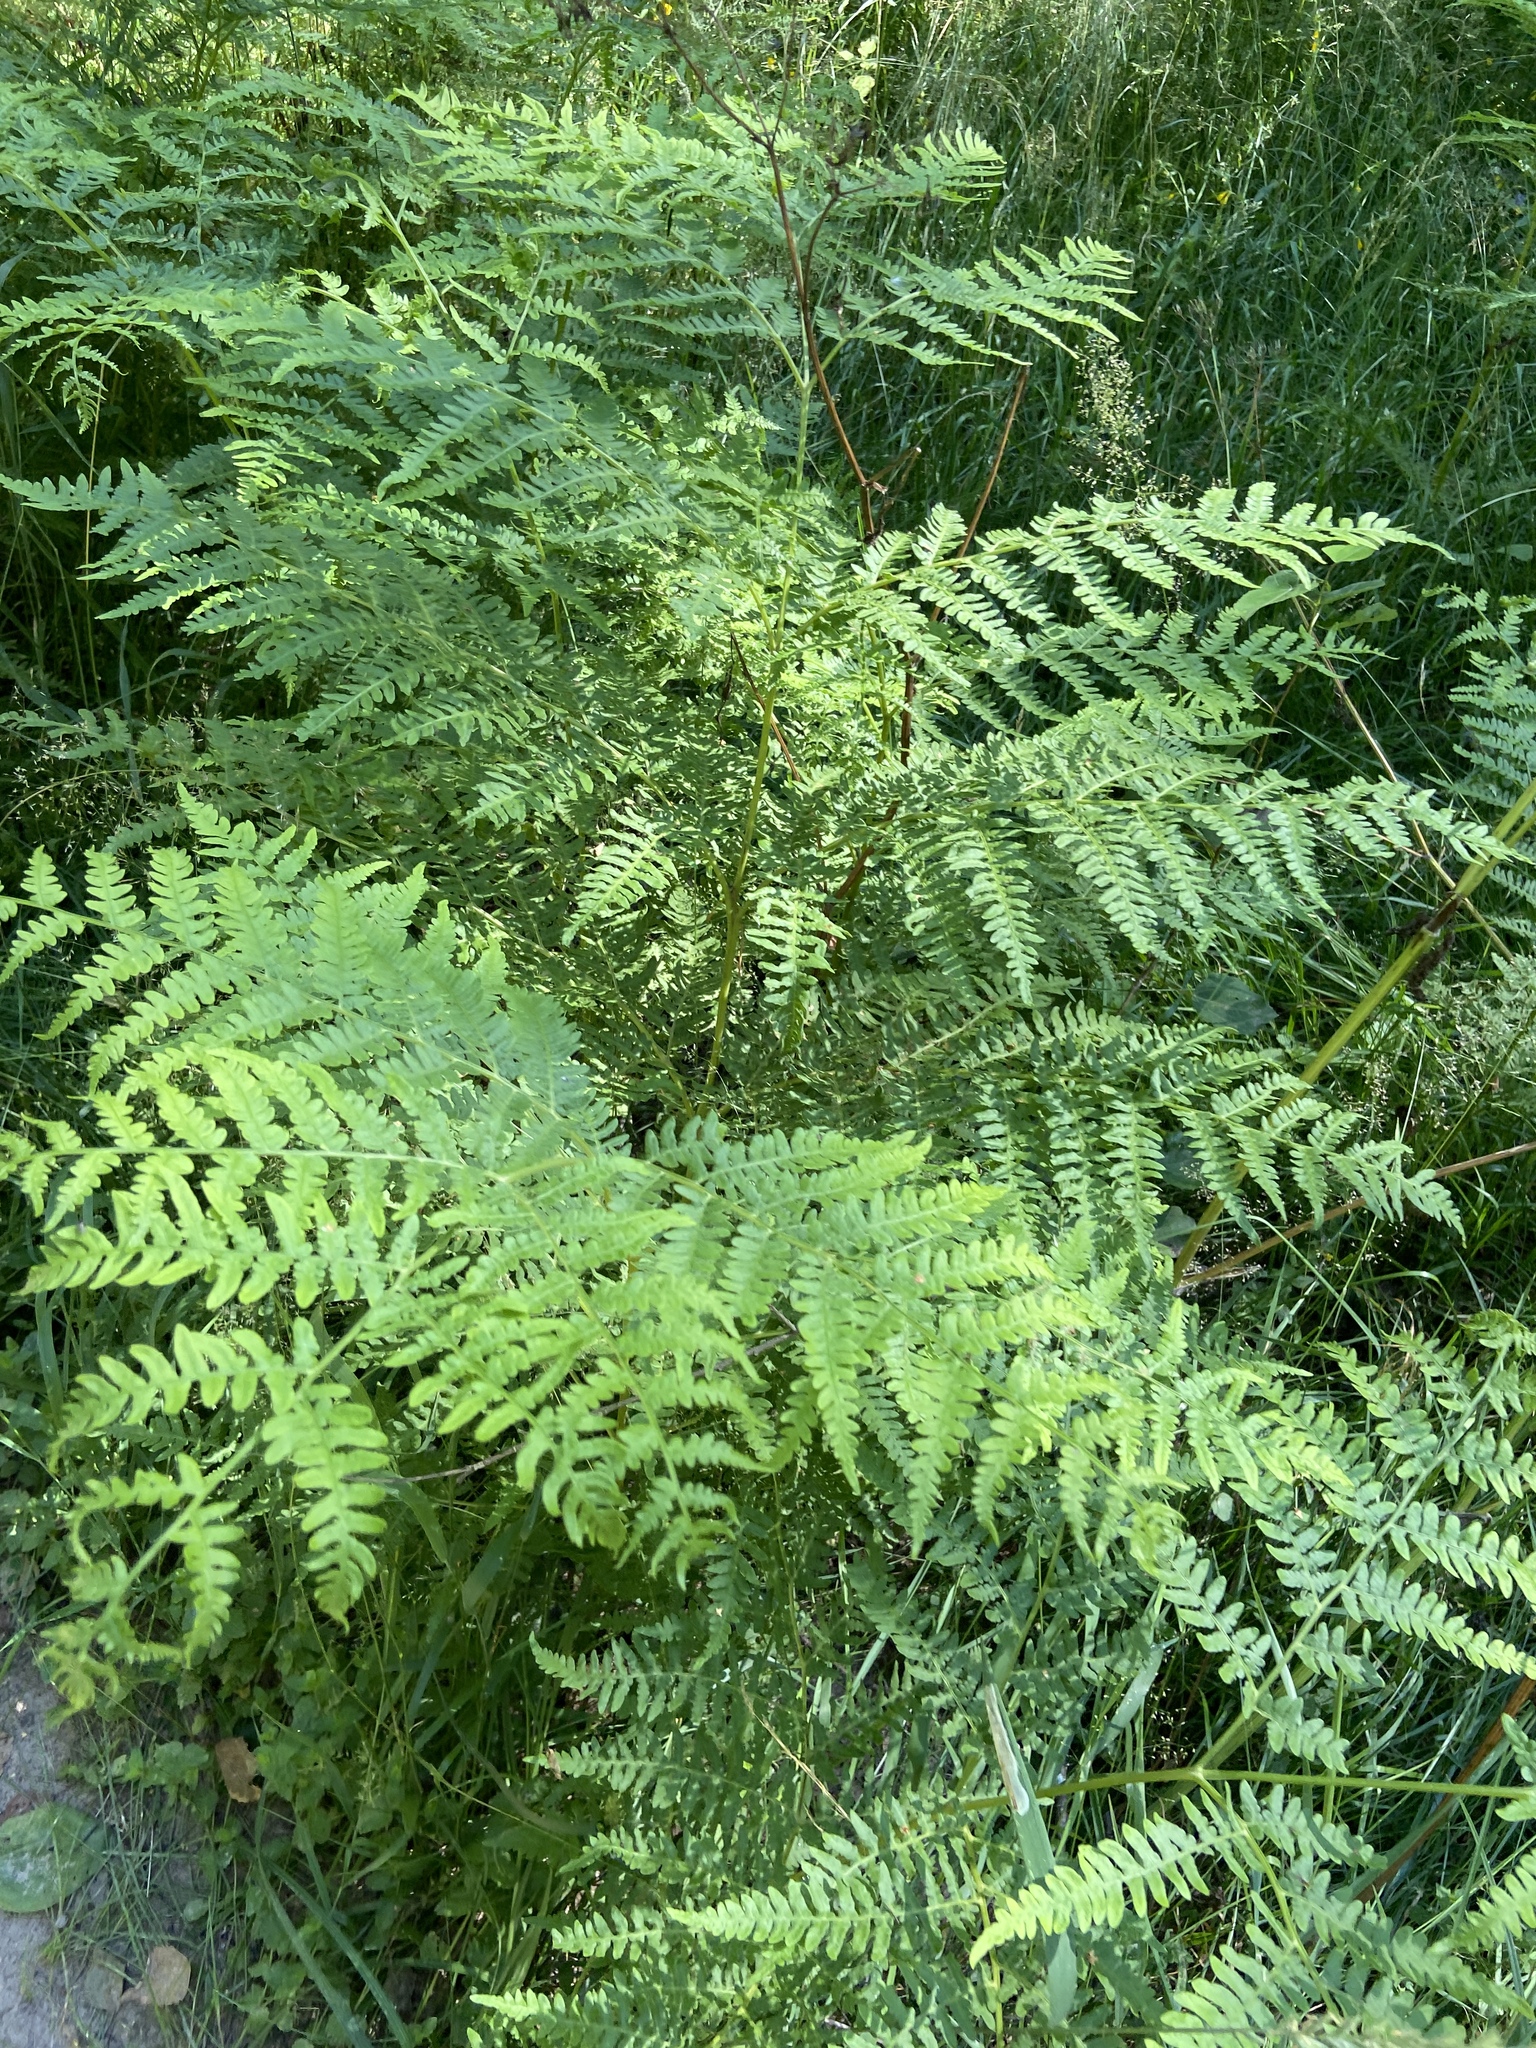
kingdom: Plantae
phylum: Tracheophyta
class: Polypodiopsida
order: Polypodiales
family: Dennstaedtiaceae
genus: Pteridium
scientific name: Pteridium aquilinum
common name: Bracken
